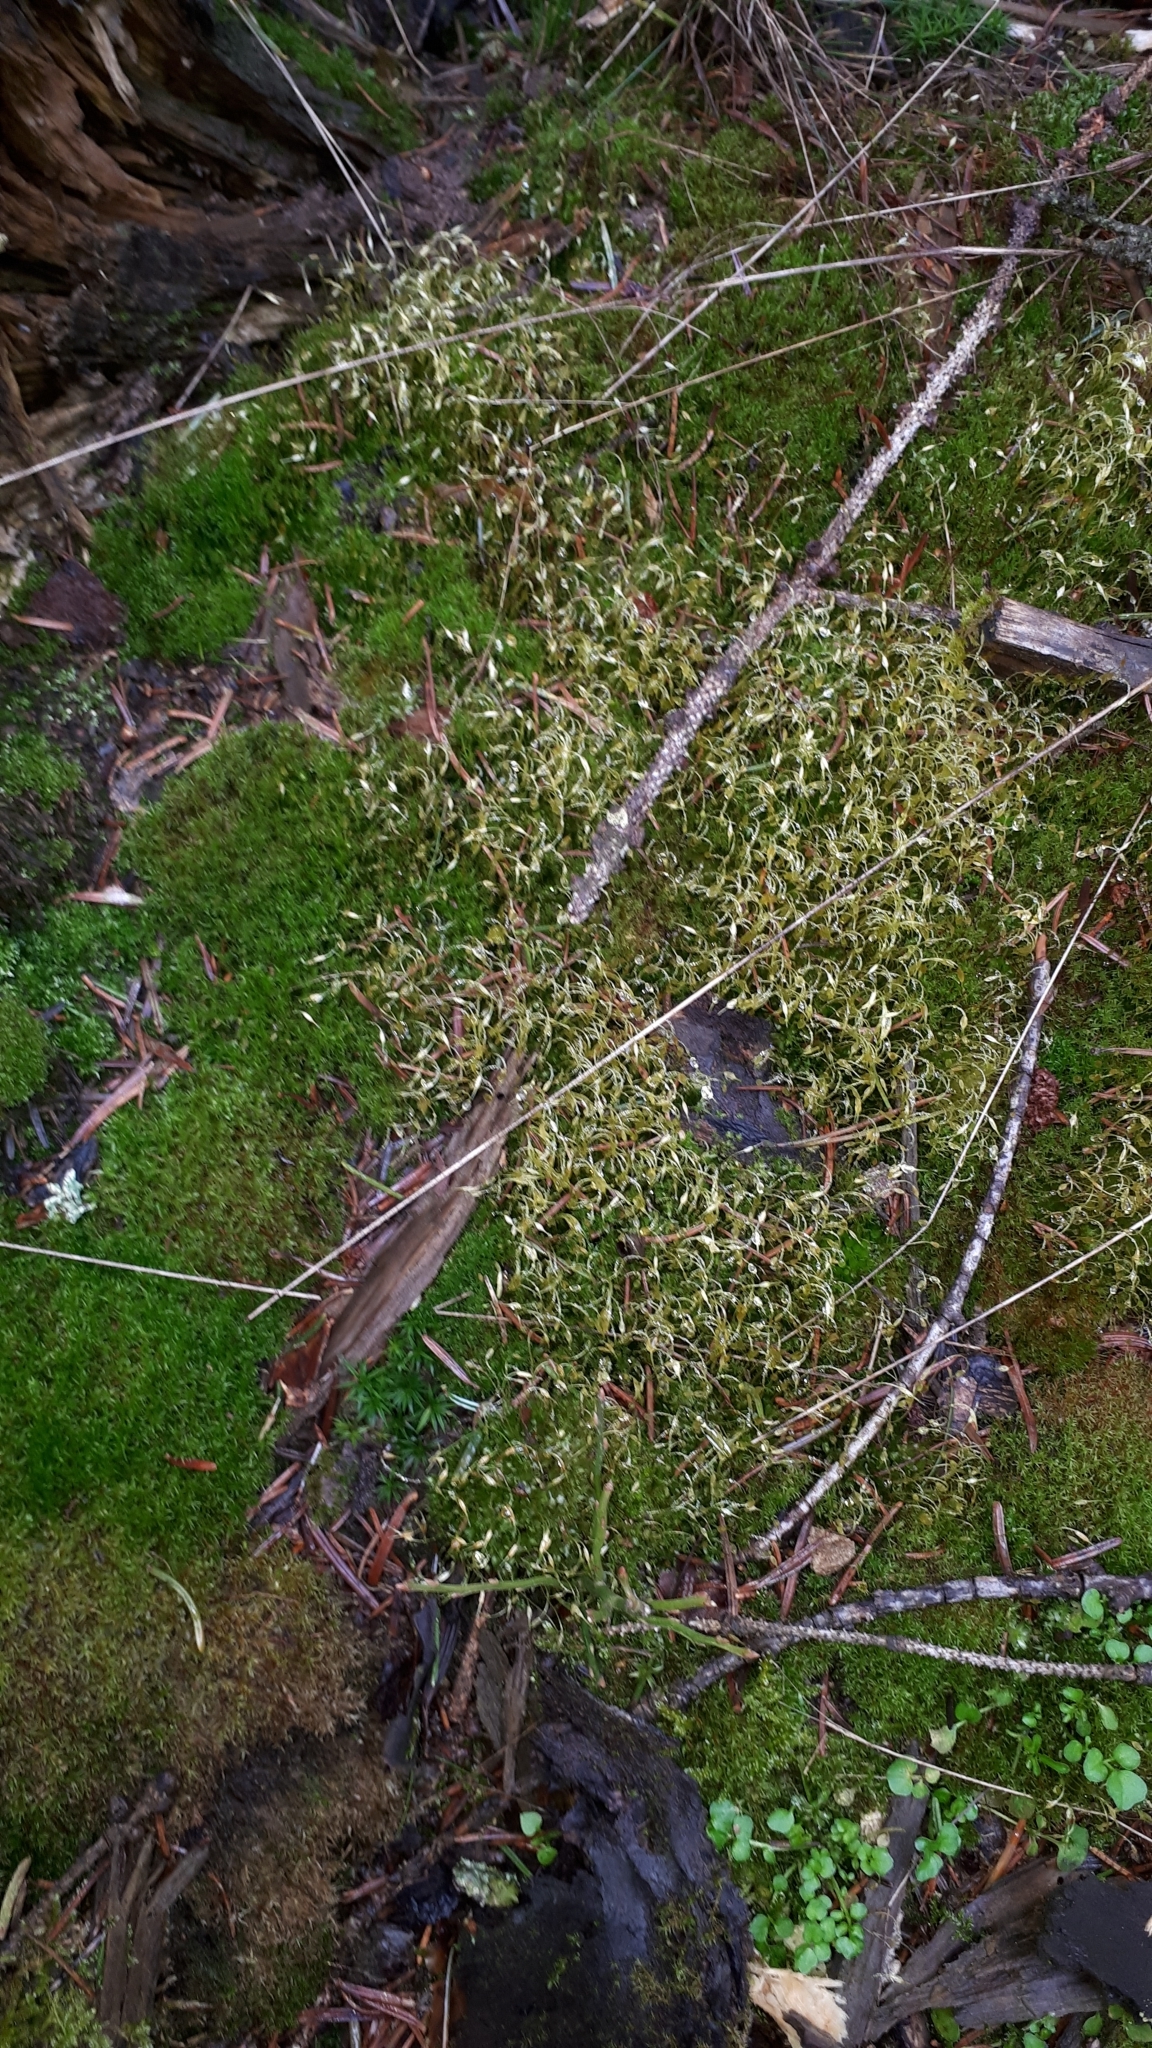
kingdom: Plantae
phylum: Bryophyta
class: Bryopsida
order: Funariales
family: Funariaceae
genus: Funaria
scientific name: Funaria hygrometrica
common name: Common cord moss
